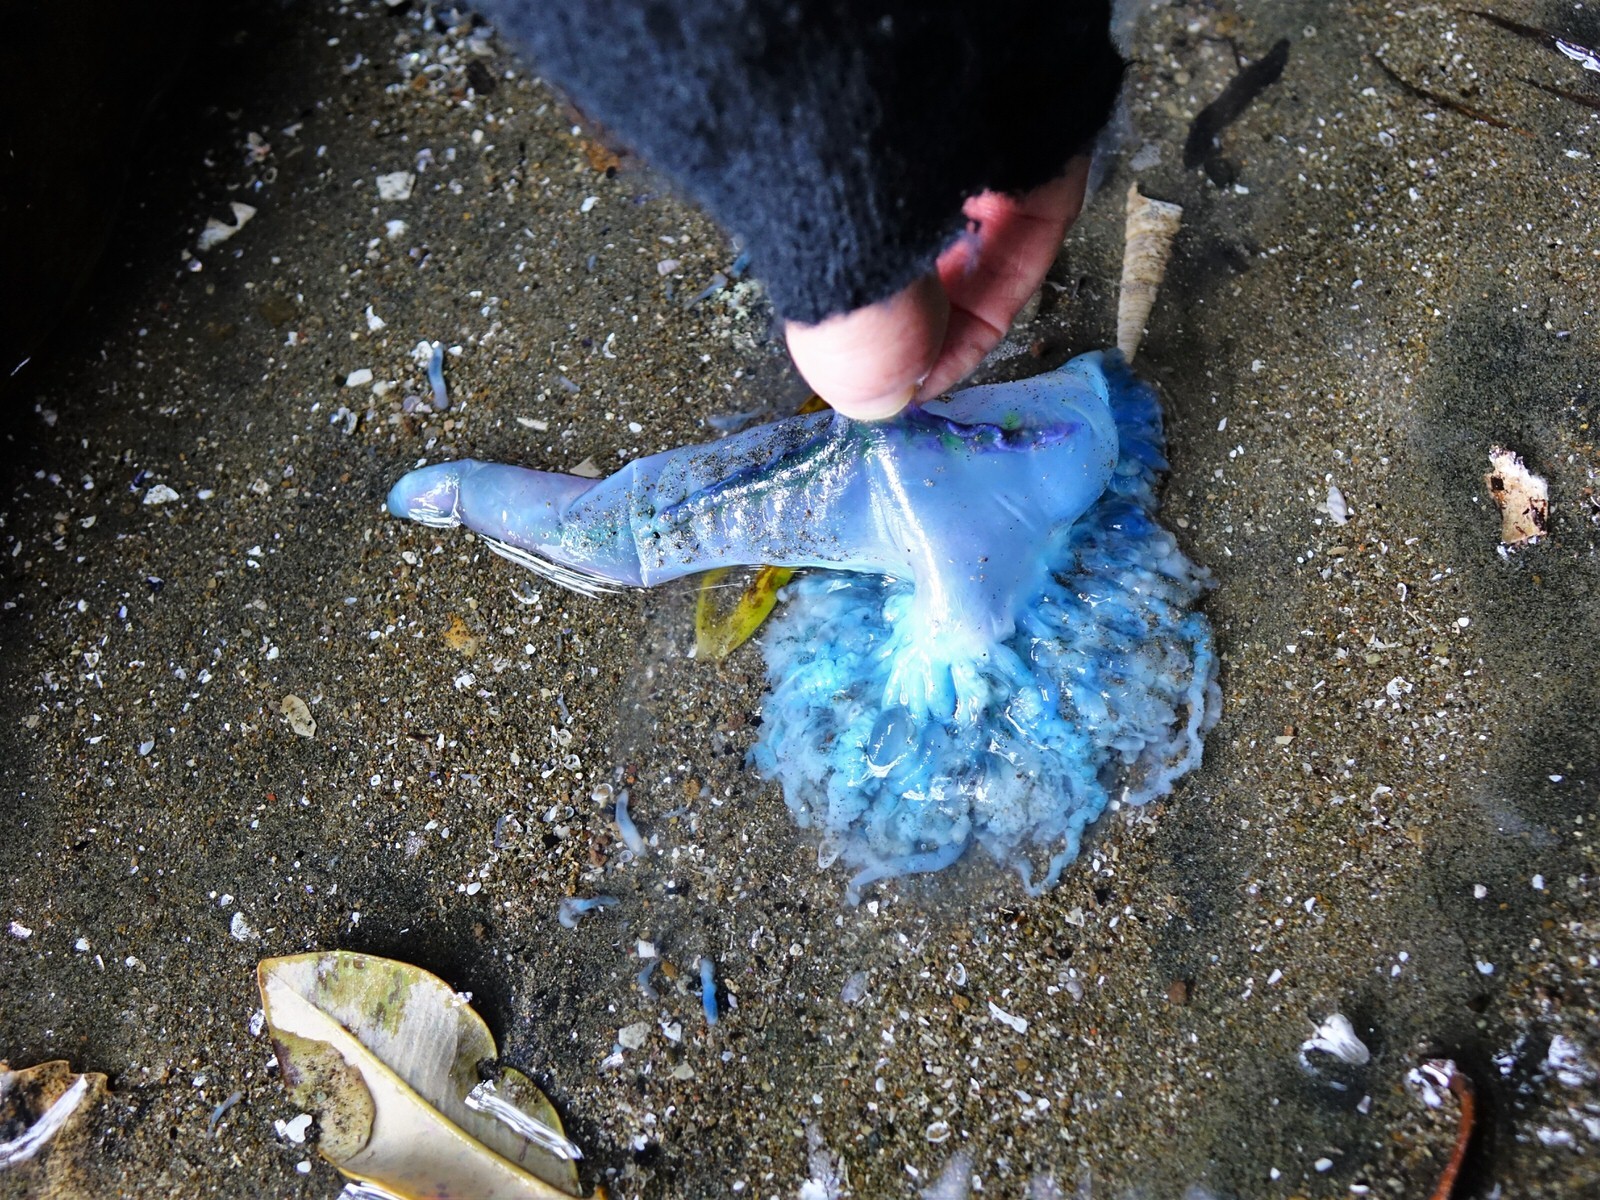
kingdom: Animalia
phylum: Cnidaria
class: Hydrozoa
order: Siphonophorae
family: Physaliidae
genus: Physalia
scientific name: Physalia physalis
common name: Portuguese man-of-war
